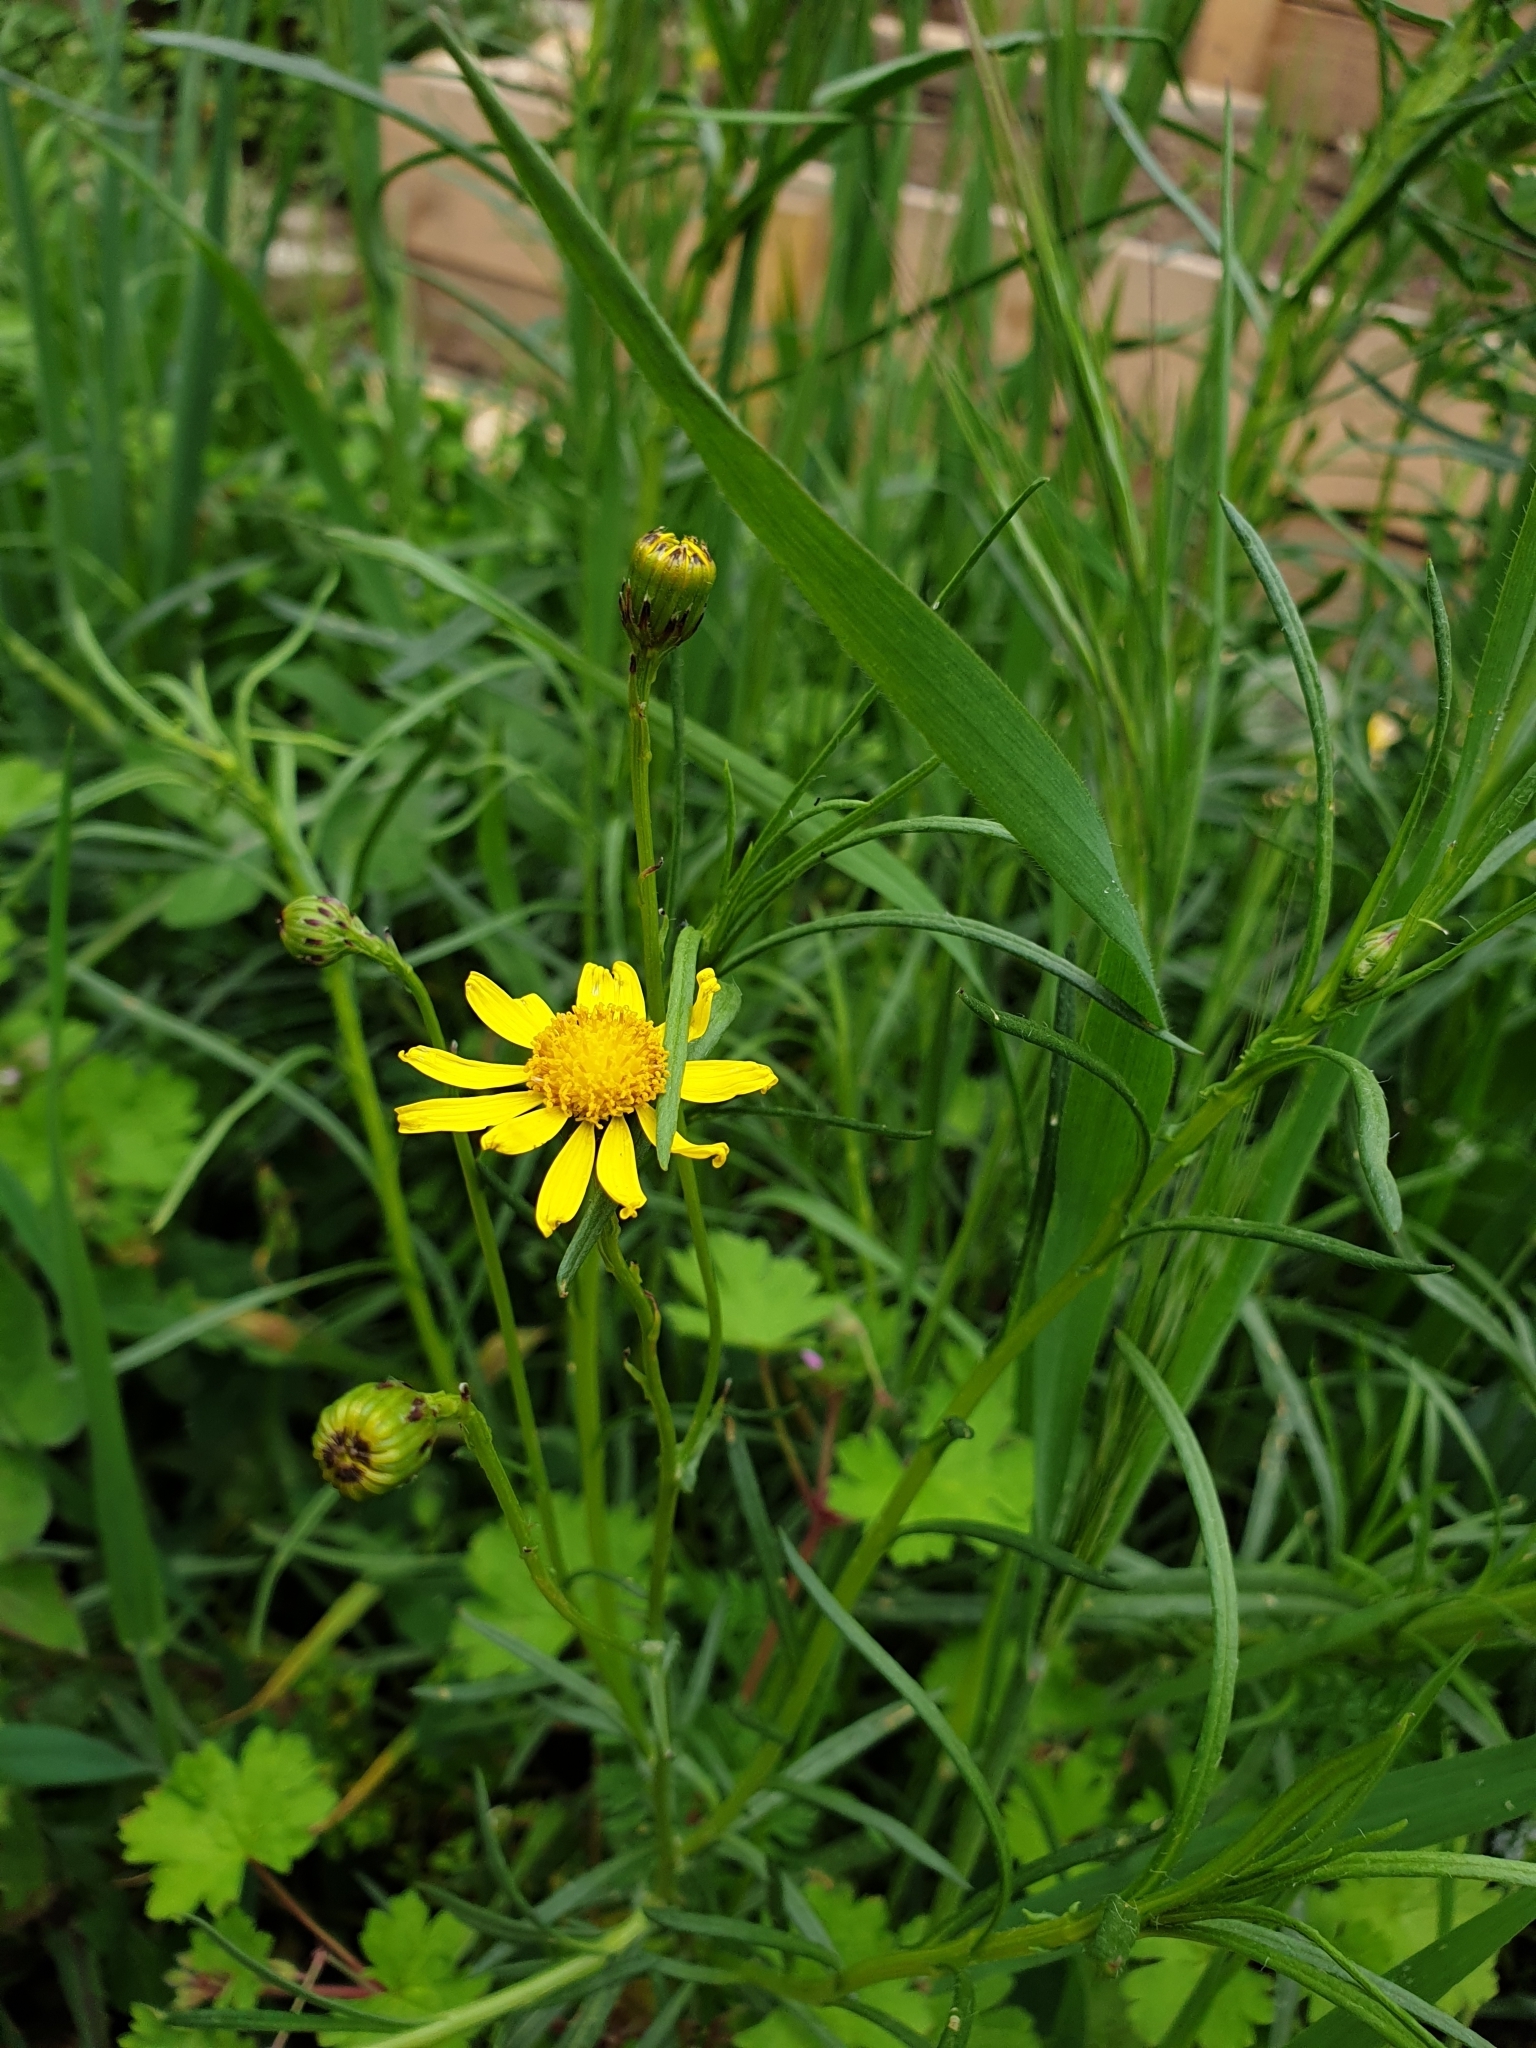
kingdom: Plantae
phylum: Tracheophyta
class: Magnoliopsida
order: Asterales
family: Asteraceae
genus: Senecio
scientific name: Senecio inaequidens
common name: Narrow-leaved ragwort
